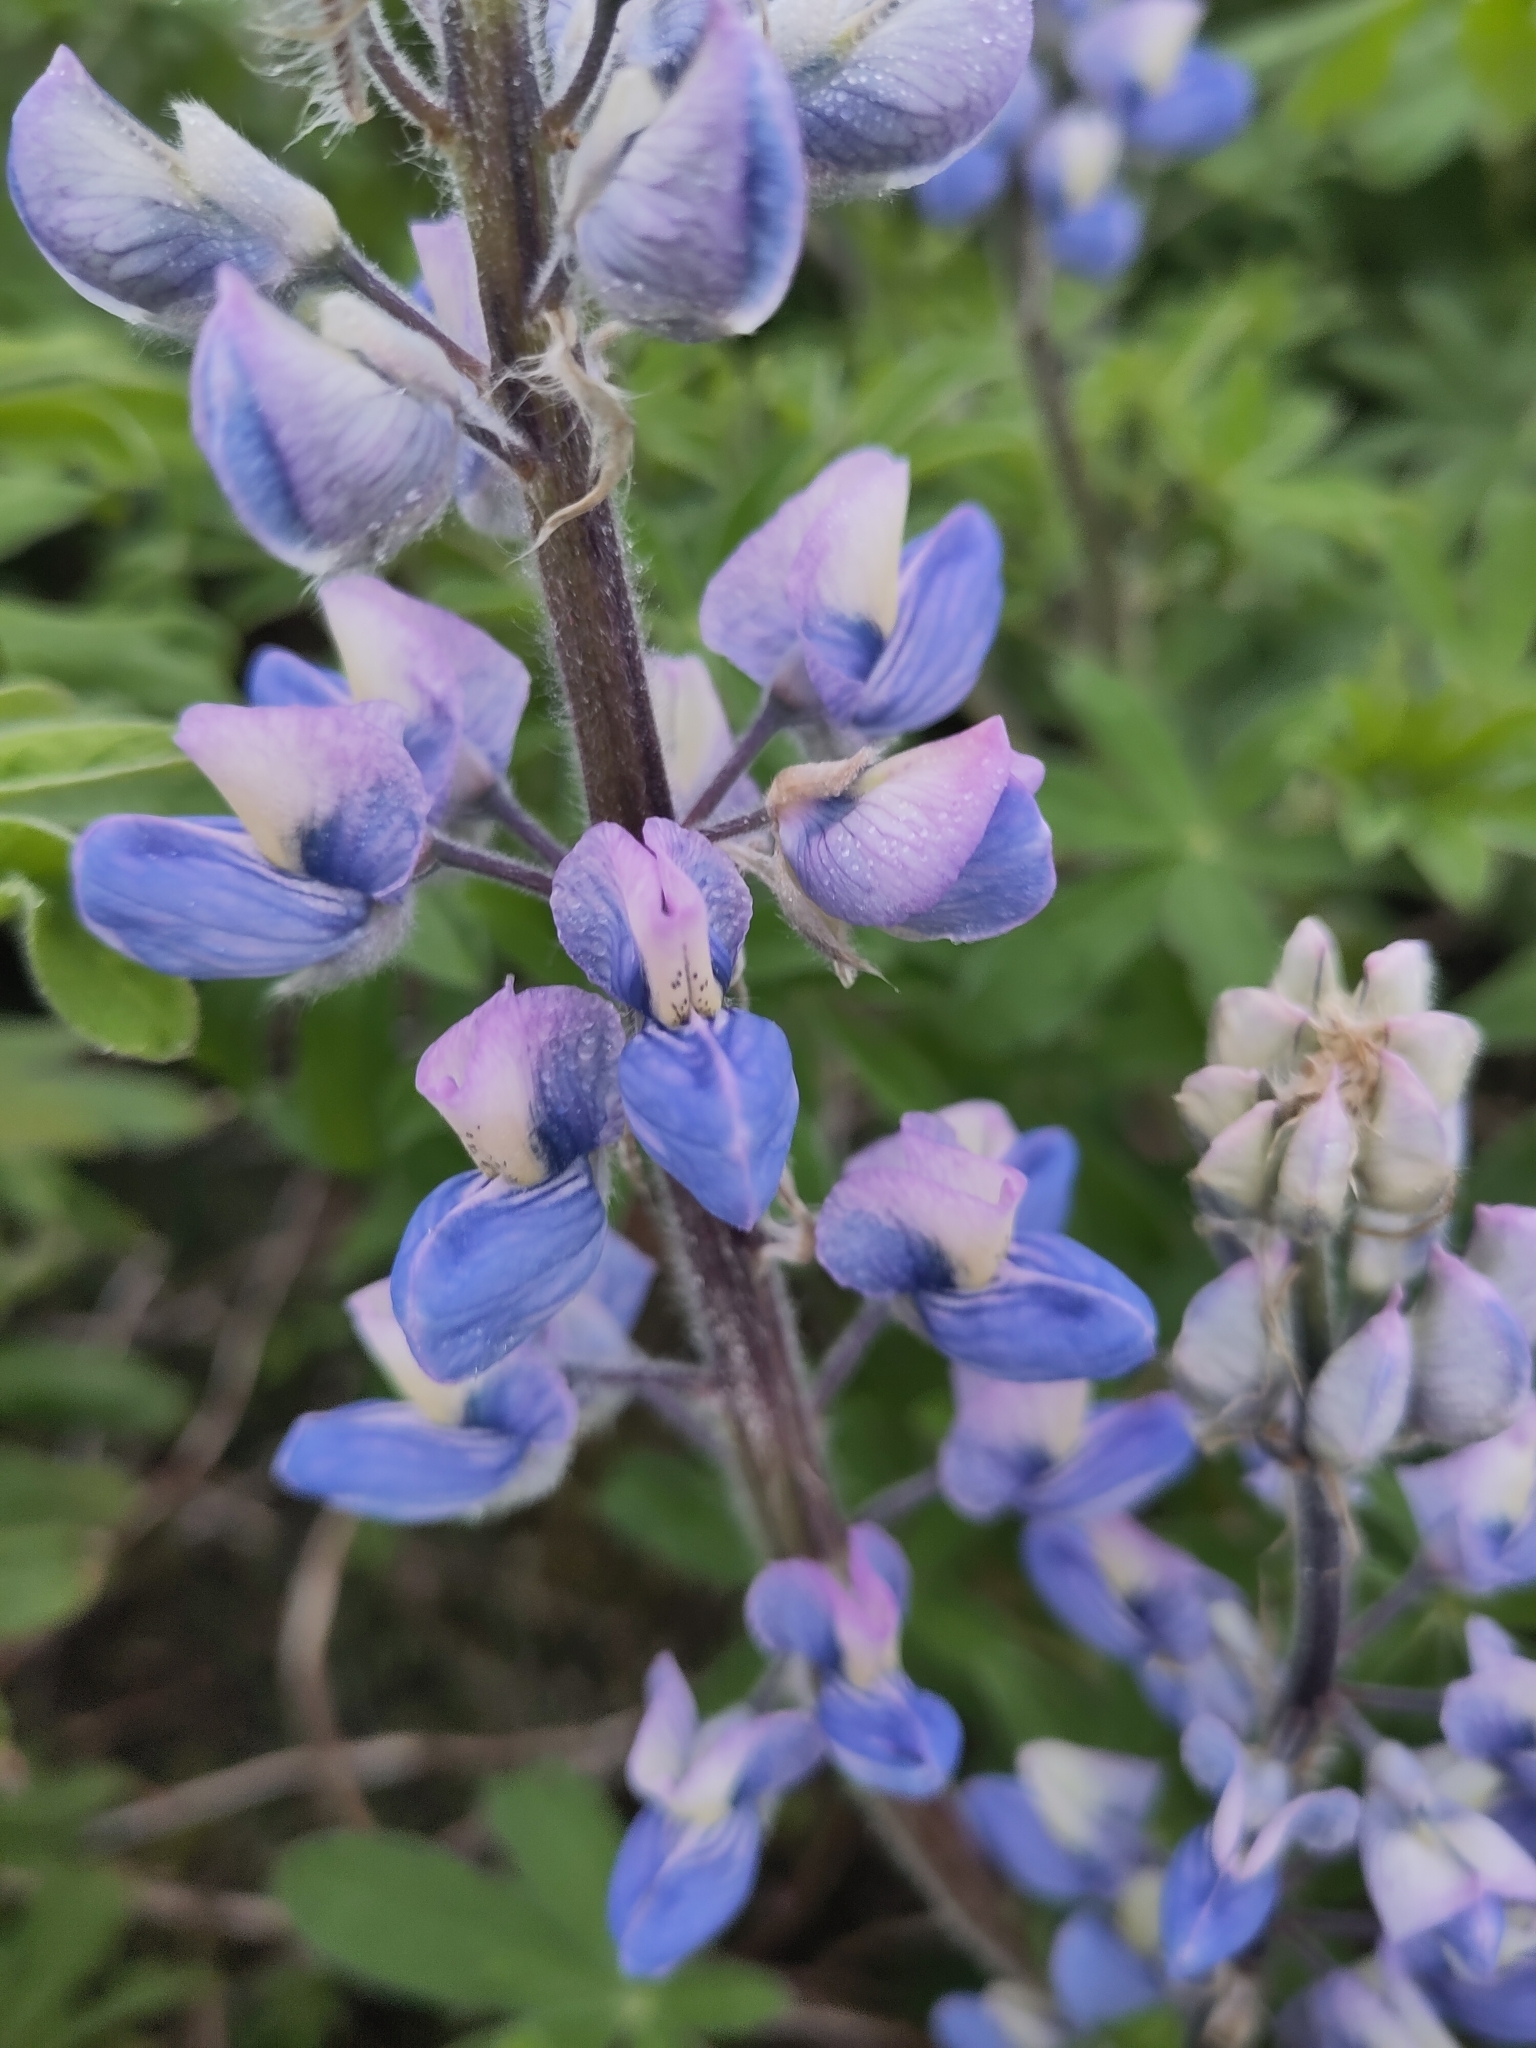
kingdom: Plantae
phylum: Tracheophyta
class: Magnoliopsida
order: Fabales
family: Fabaceae
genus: Lupinus
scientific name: Lupinus nootkatensis
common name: Nootka lupine
